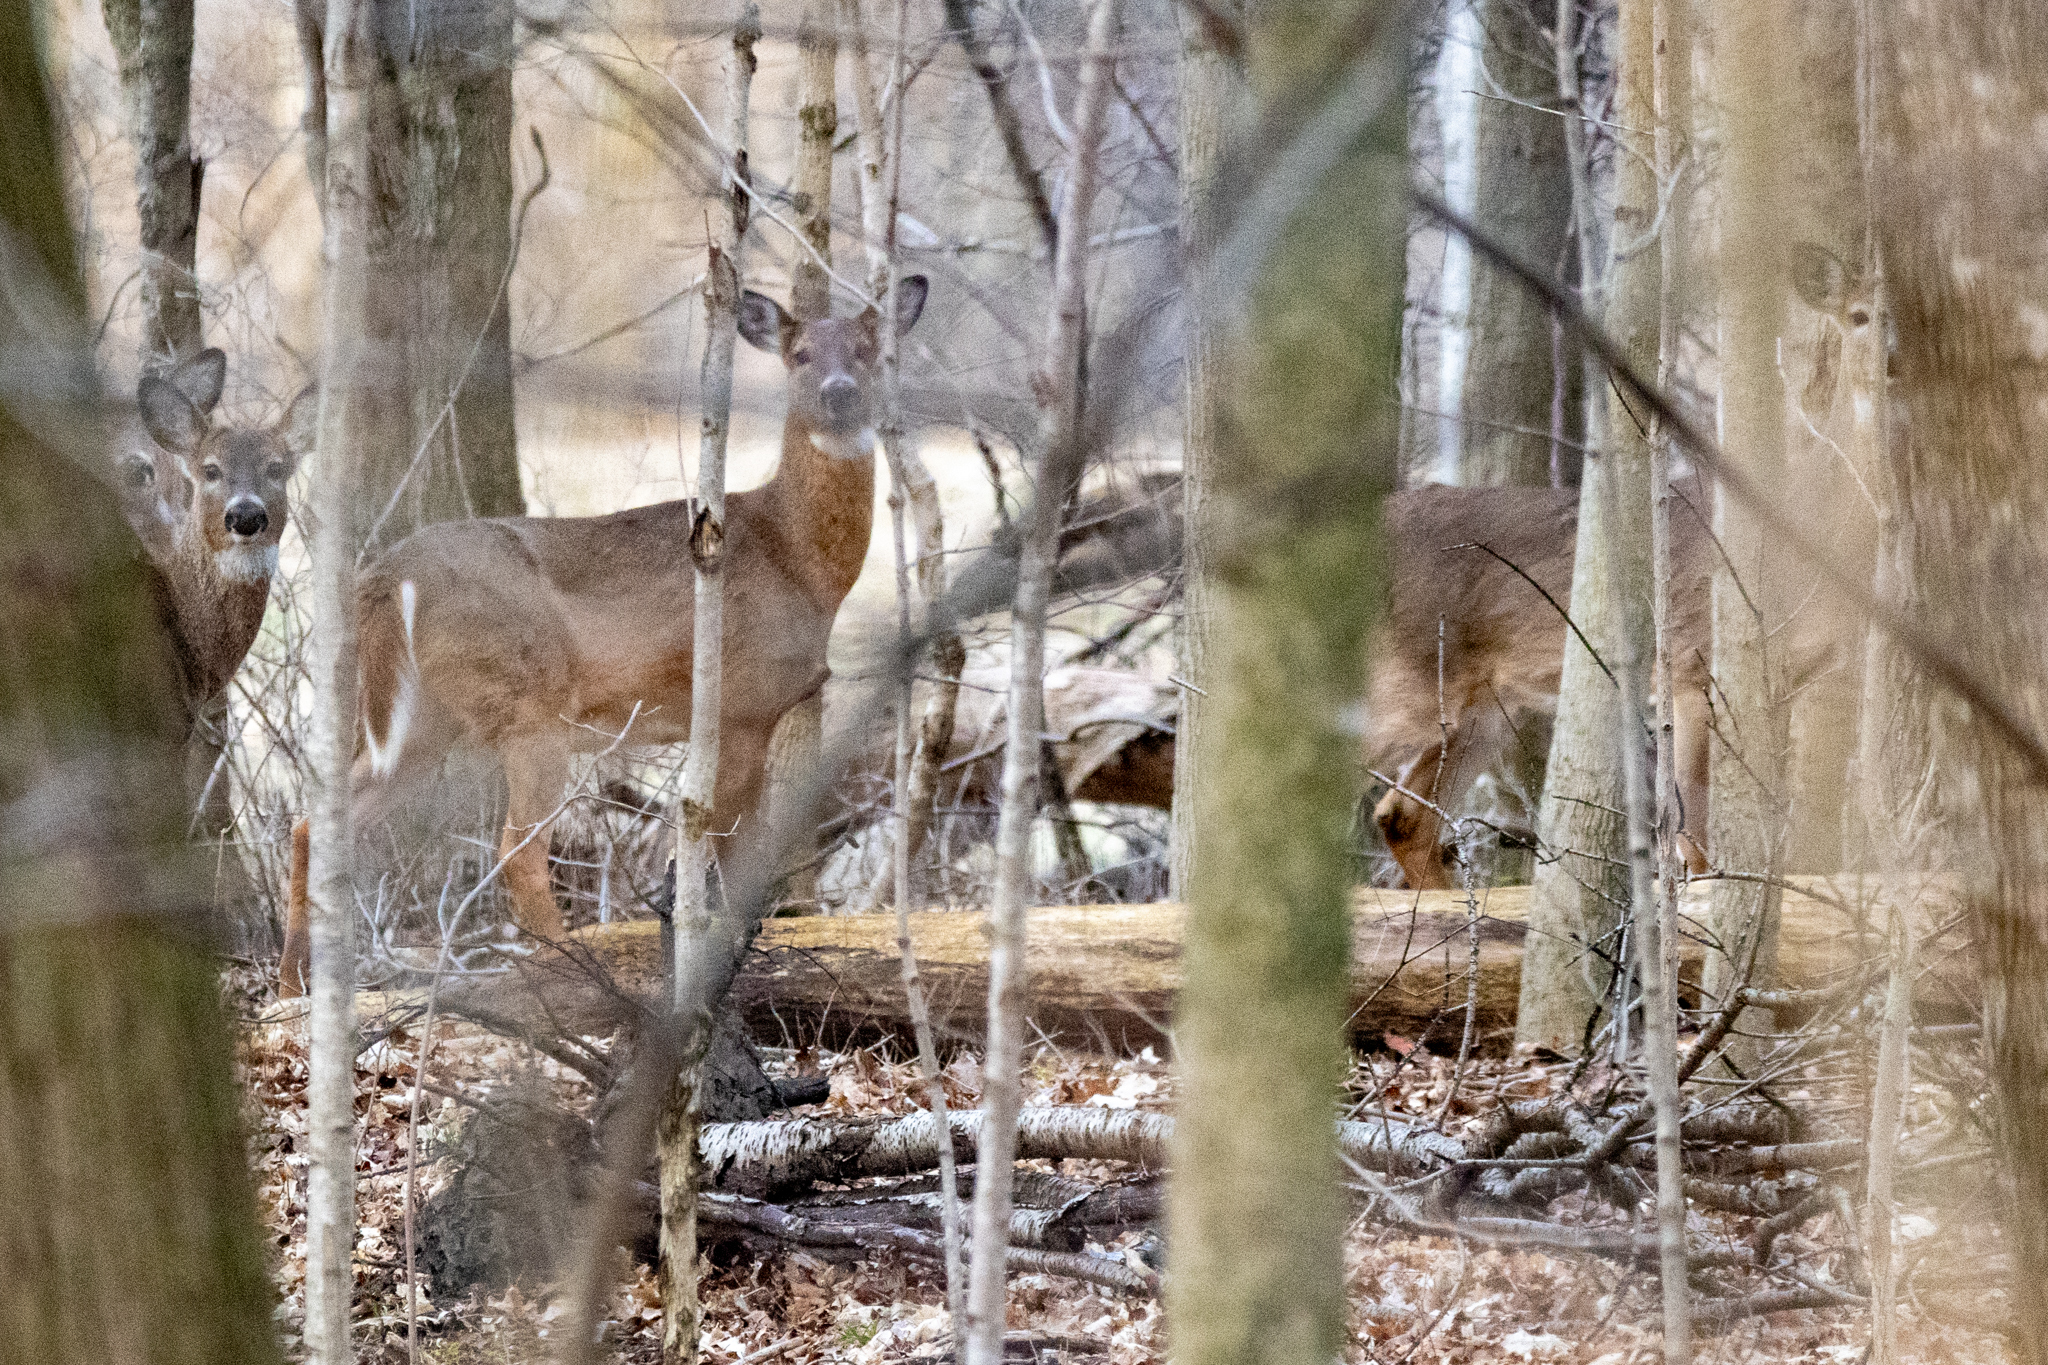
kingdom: Animalia
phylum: Chordata
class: Mammalia
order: Artiodactyla
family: Cervidae
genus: Odocoileus
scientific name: Odocoileus virginianus
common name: White-tailed deer
